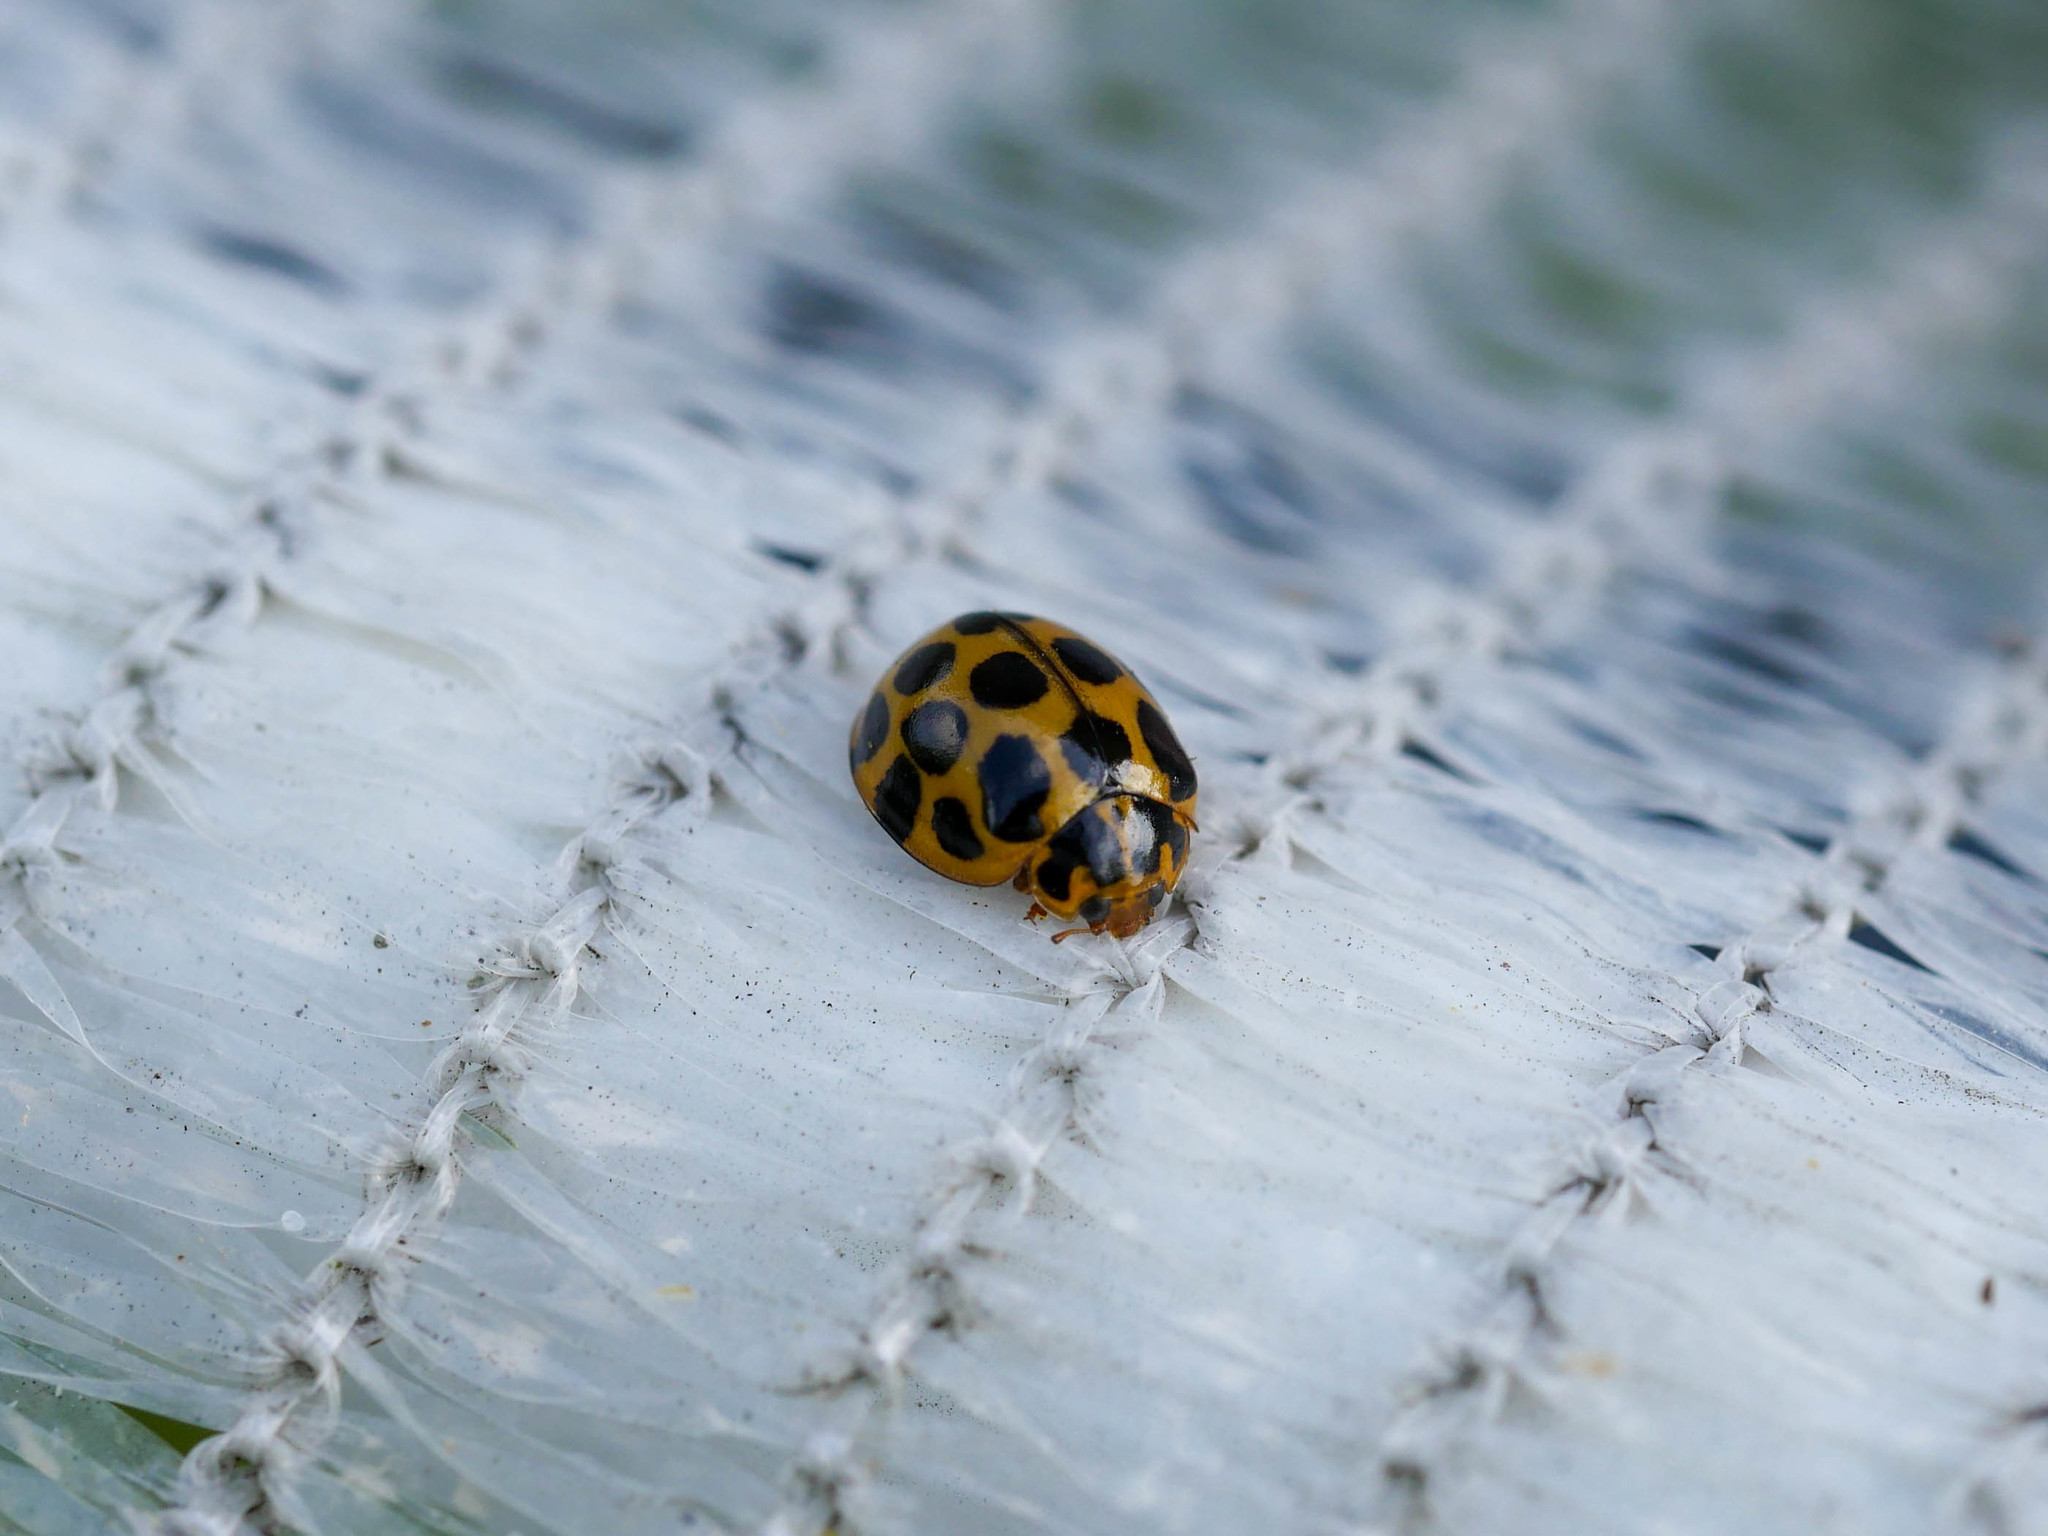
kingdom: Animalia
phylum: Arthropoda
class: Insecta
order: Coleoptera
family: Coccinellidae
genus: Harmonia
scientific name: Harmonia conformis
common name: Common spotted ladybird beetle
